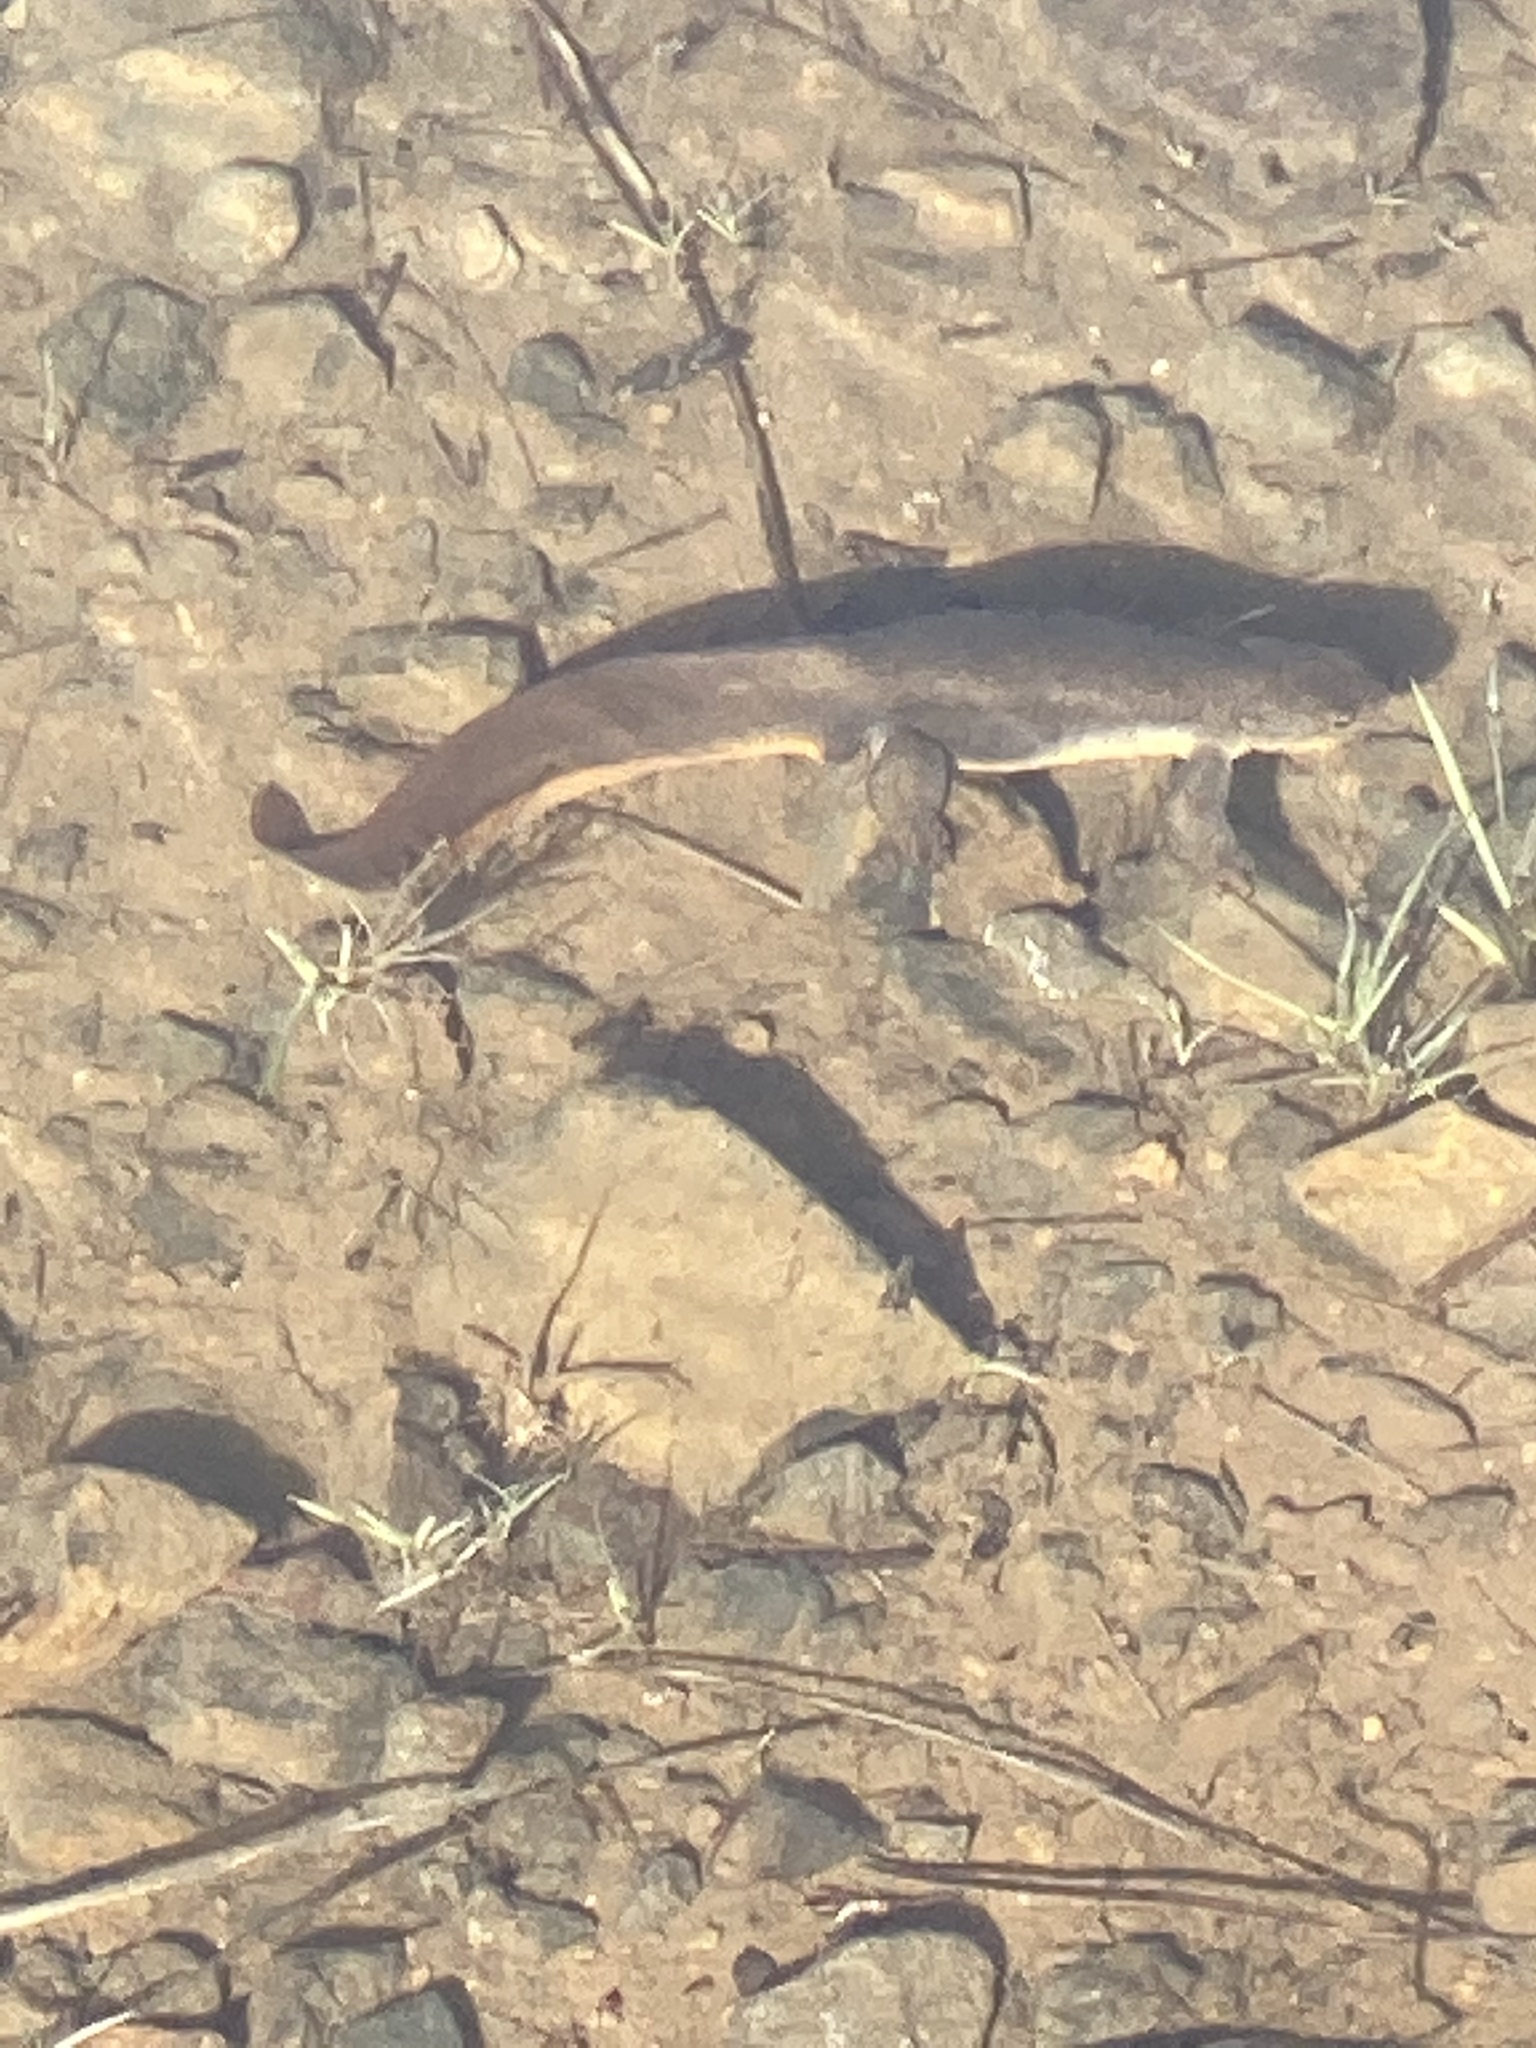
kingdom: Animalia
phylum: Chordata
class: Amphibia
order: Caudata
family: Salamandridae
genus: Taricha
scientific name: Taricha granulosa
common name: Roughskin newt
